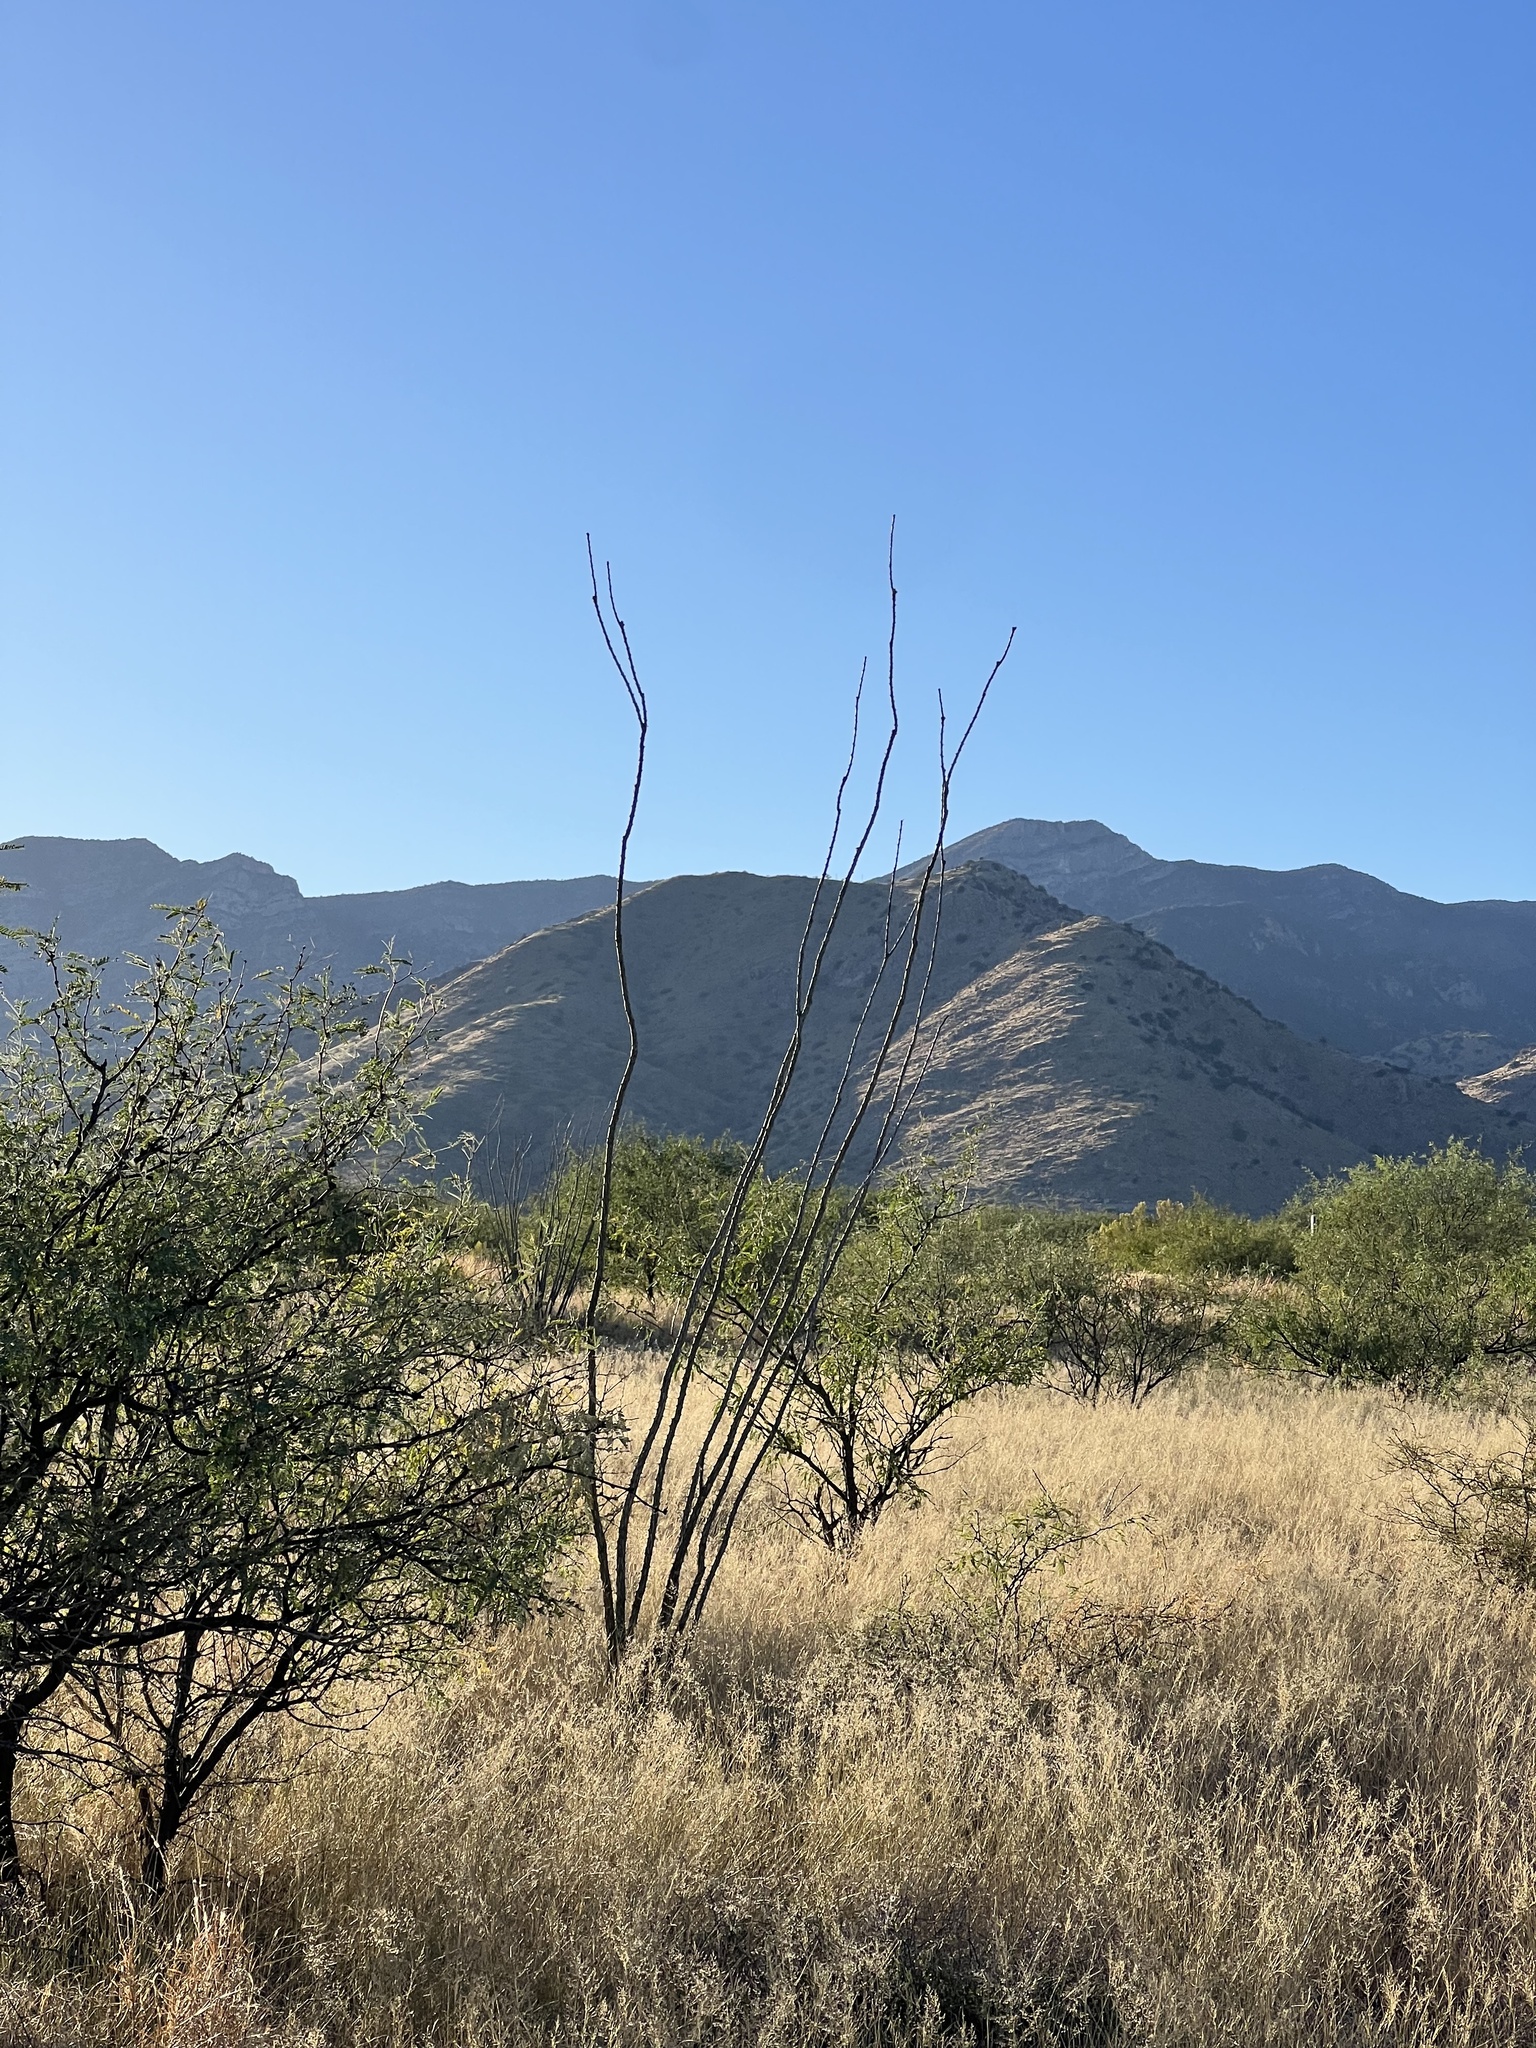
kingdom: Plantae
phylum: Tracheophyta
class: Magnoliopsida
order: Ericales
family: Fouquieriaceae
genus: Fouquieria
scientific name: Fouquieria splendens
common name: Vine-cactus
